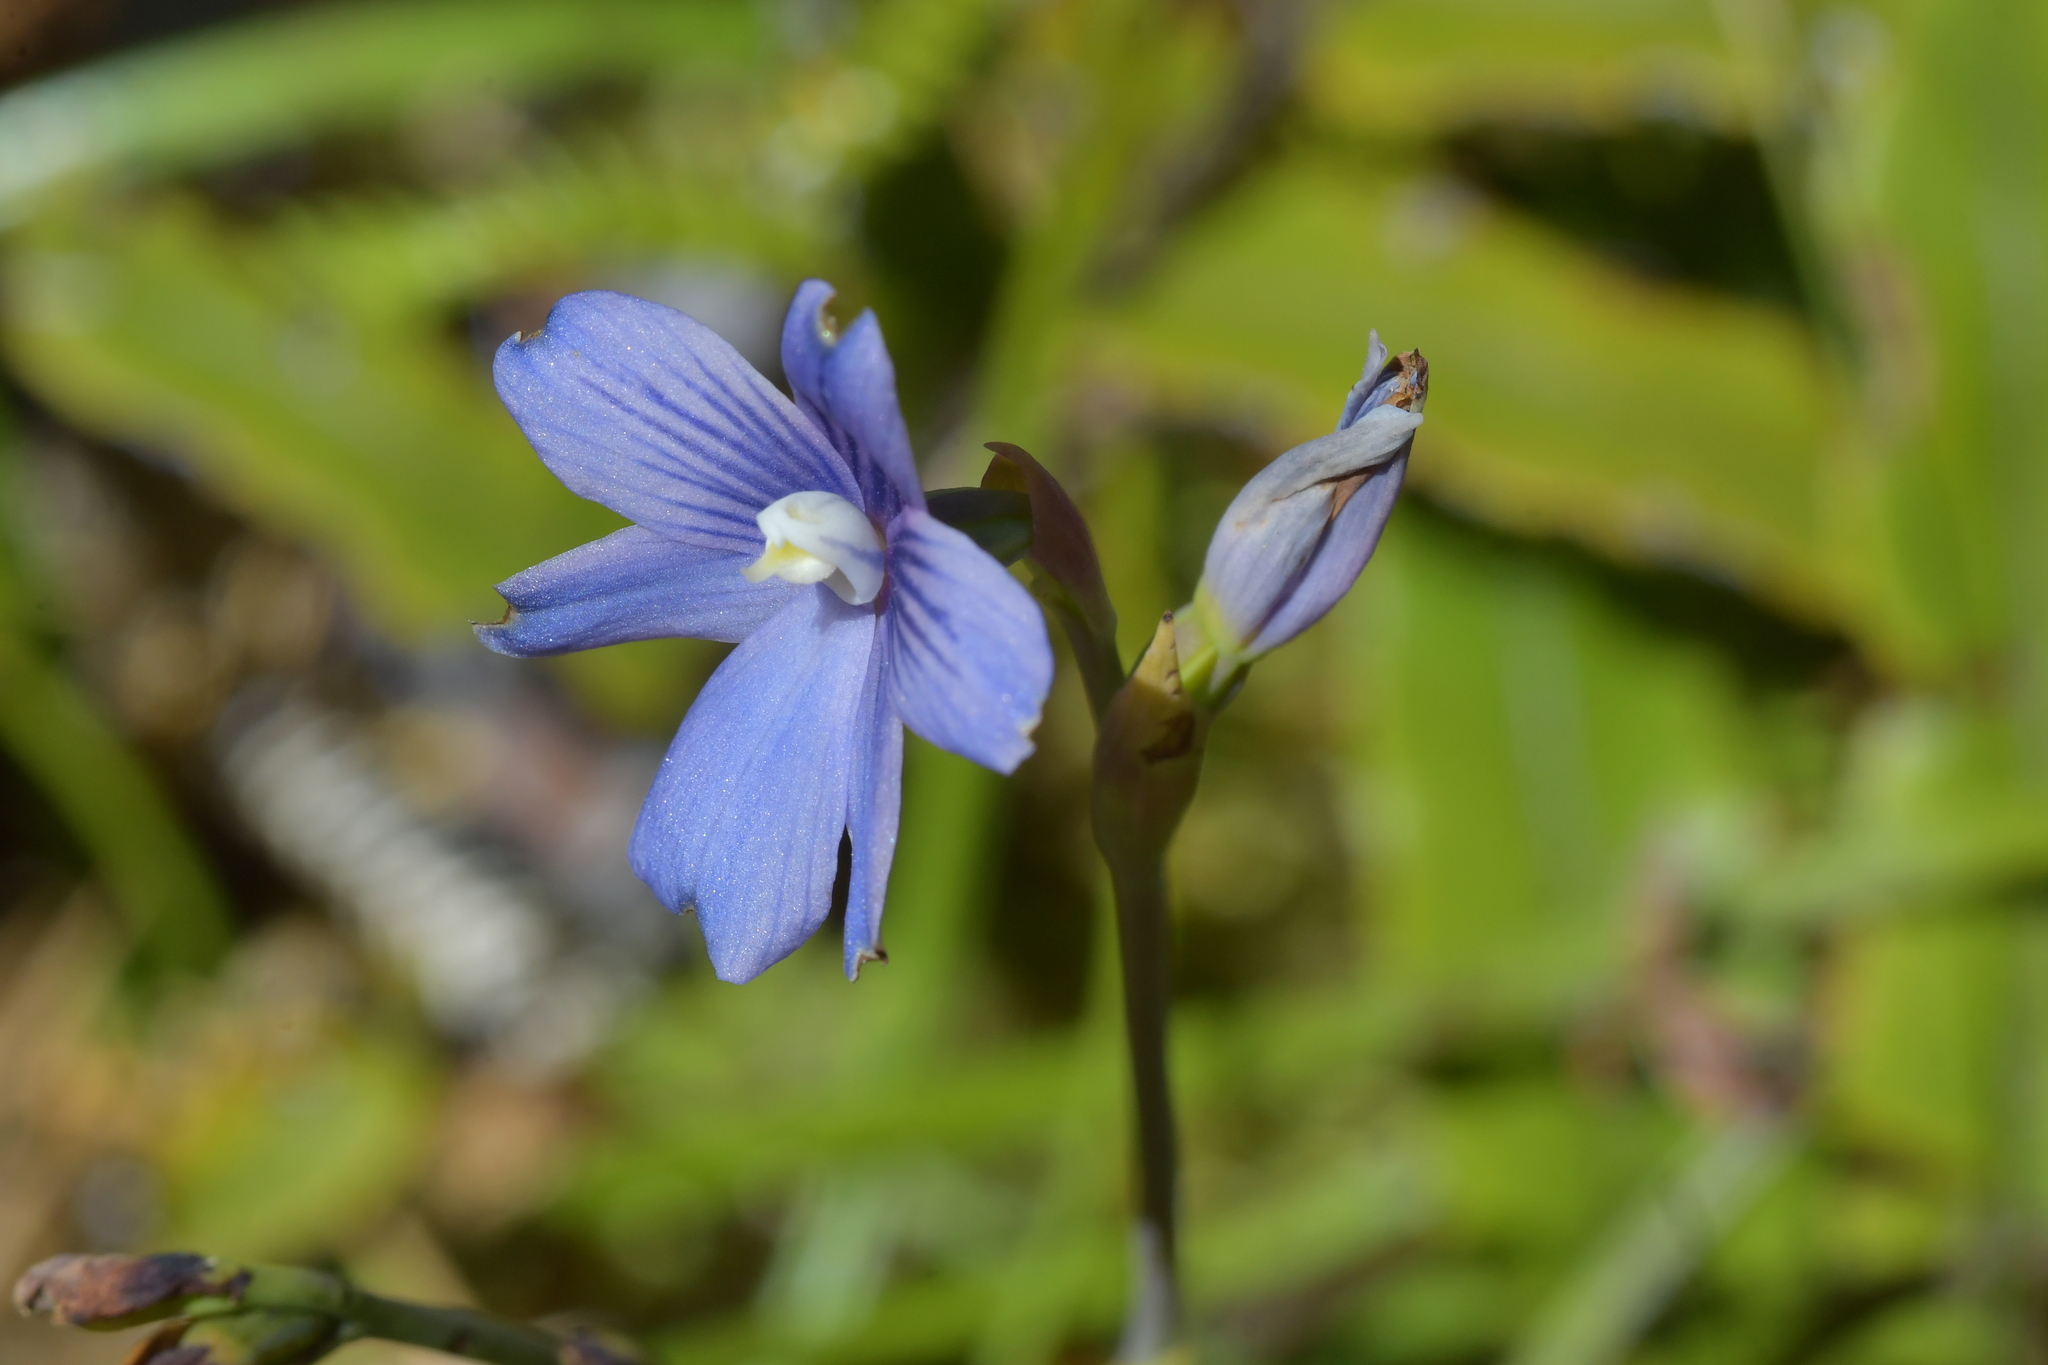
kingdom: Plantae
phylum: Tracheophyta
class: Liliopsida
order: Asparagales
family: Orchidaceae
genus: Thelymitra
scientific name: Thelymitra cyanea
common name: Blue sun-orchid
